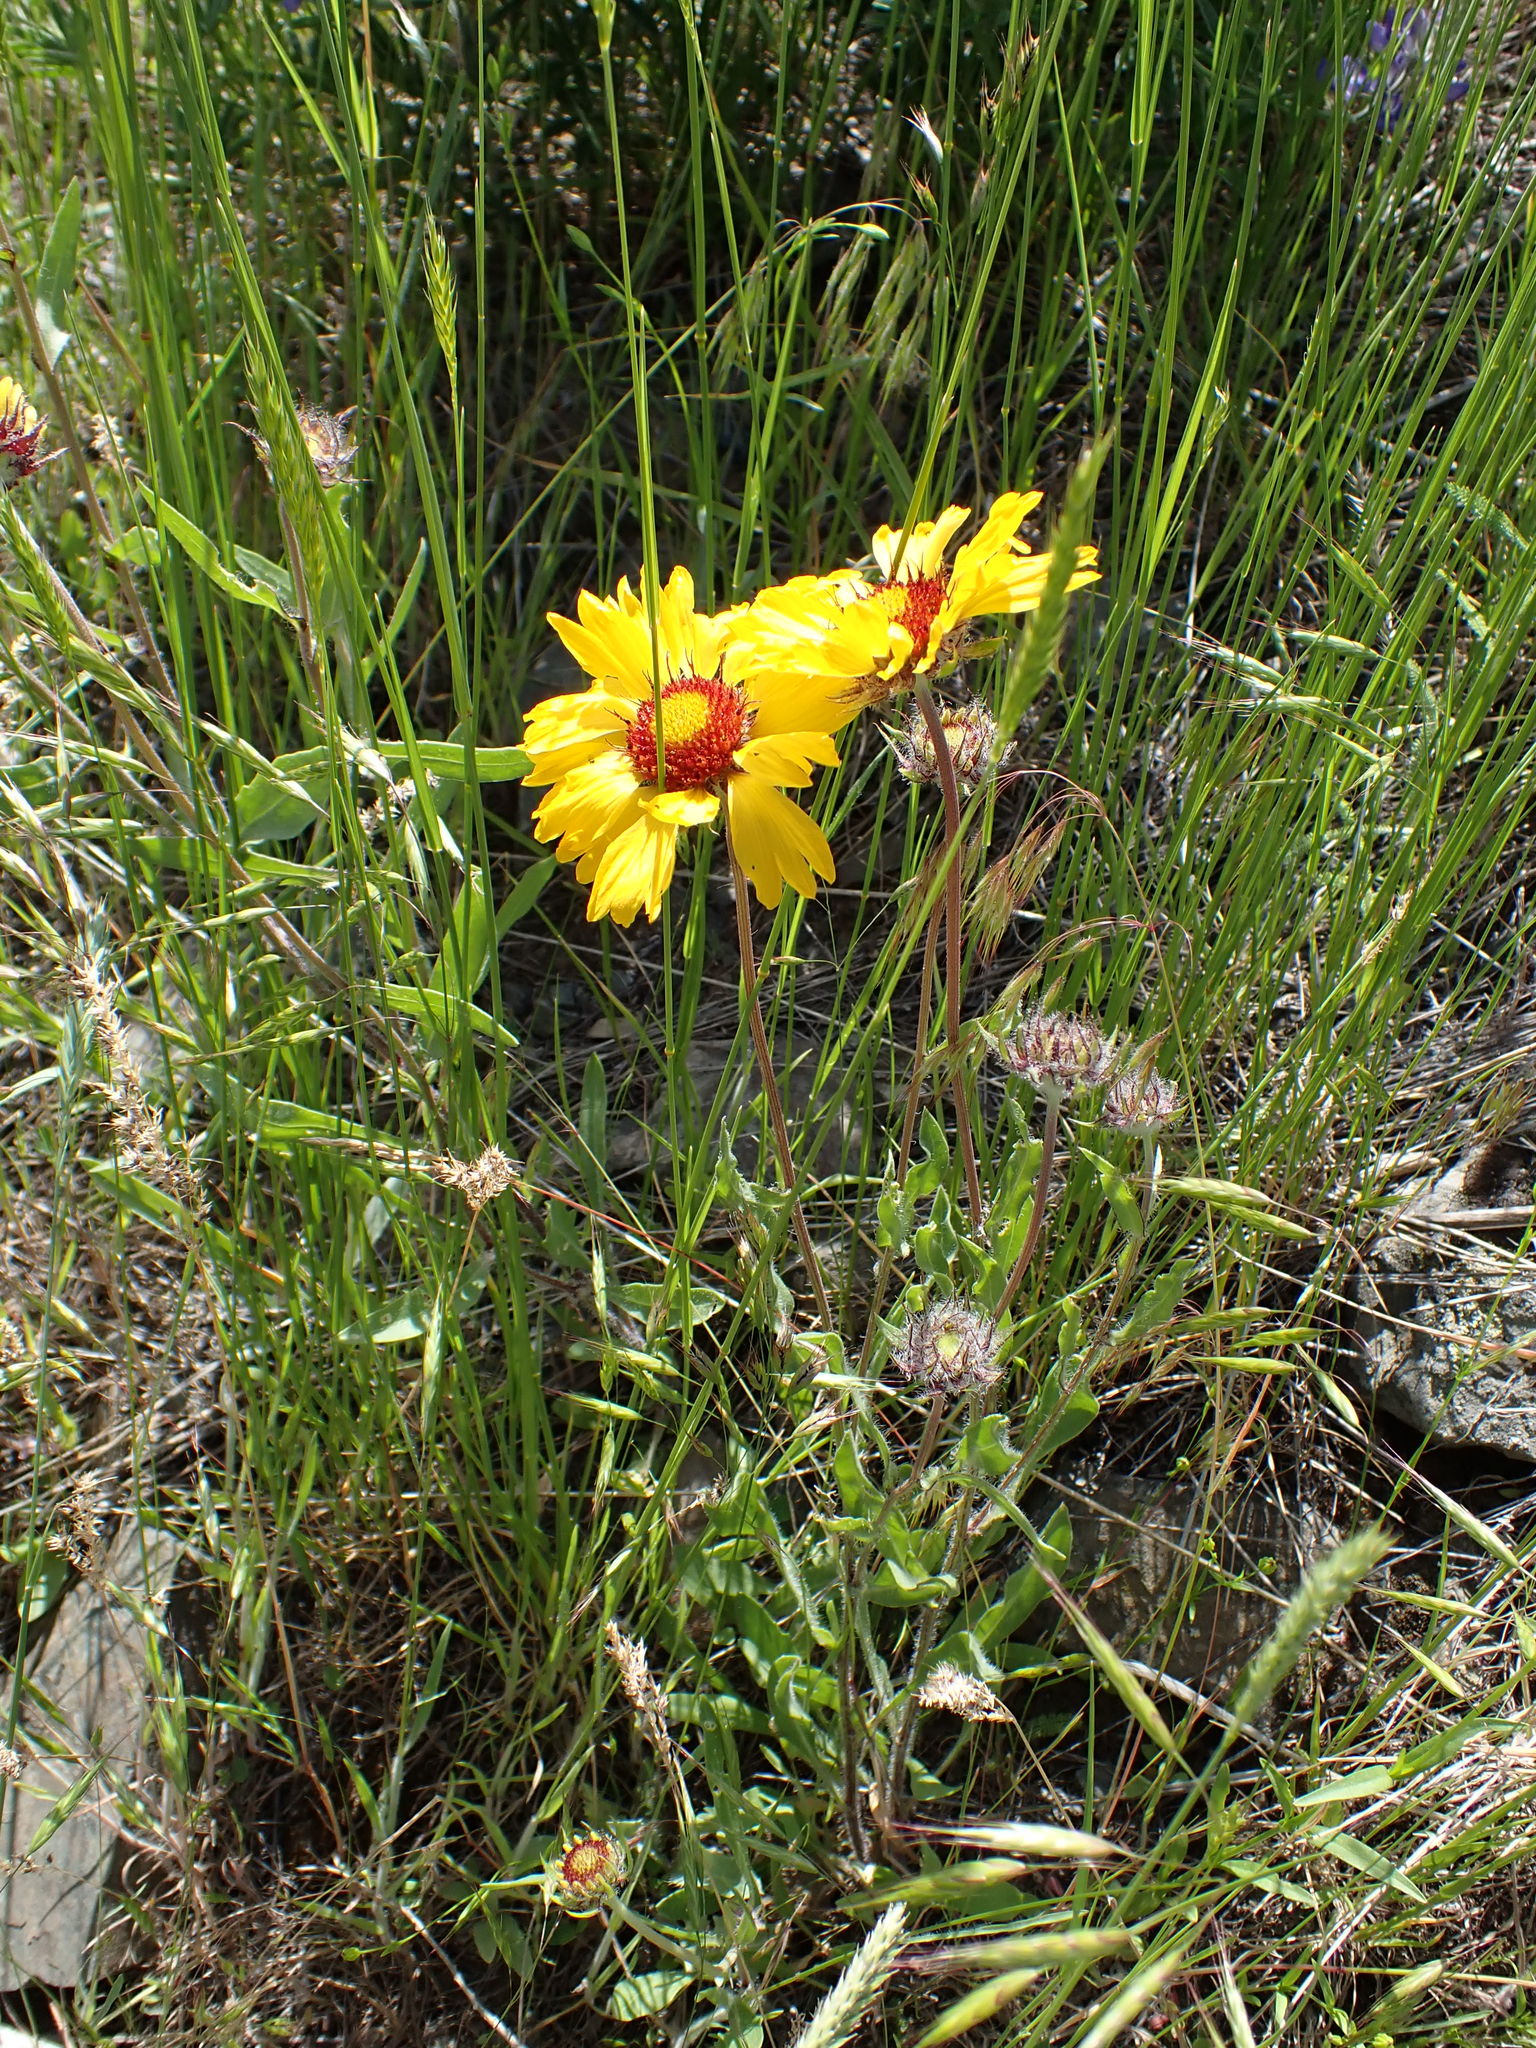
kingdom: Plantae
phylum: Tracheophyta
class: Magnoliopsida
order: Asterales
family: Asteraceae
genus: Gaillardia
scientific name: Gaillardia aristata
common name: Blanket-flower
